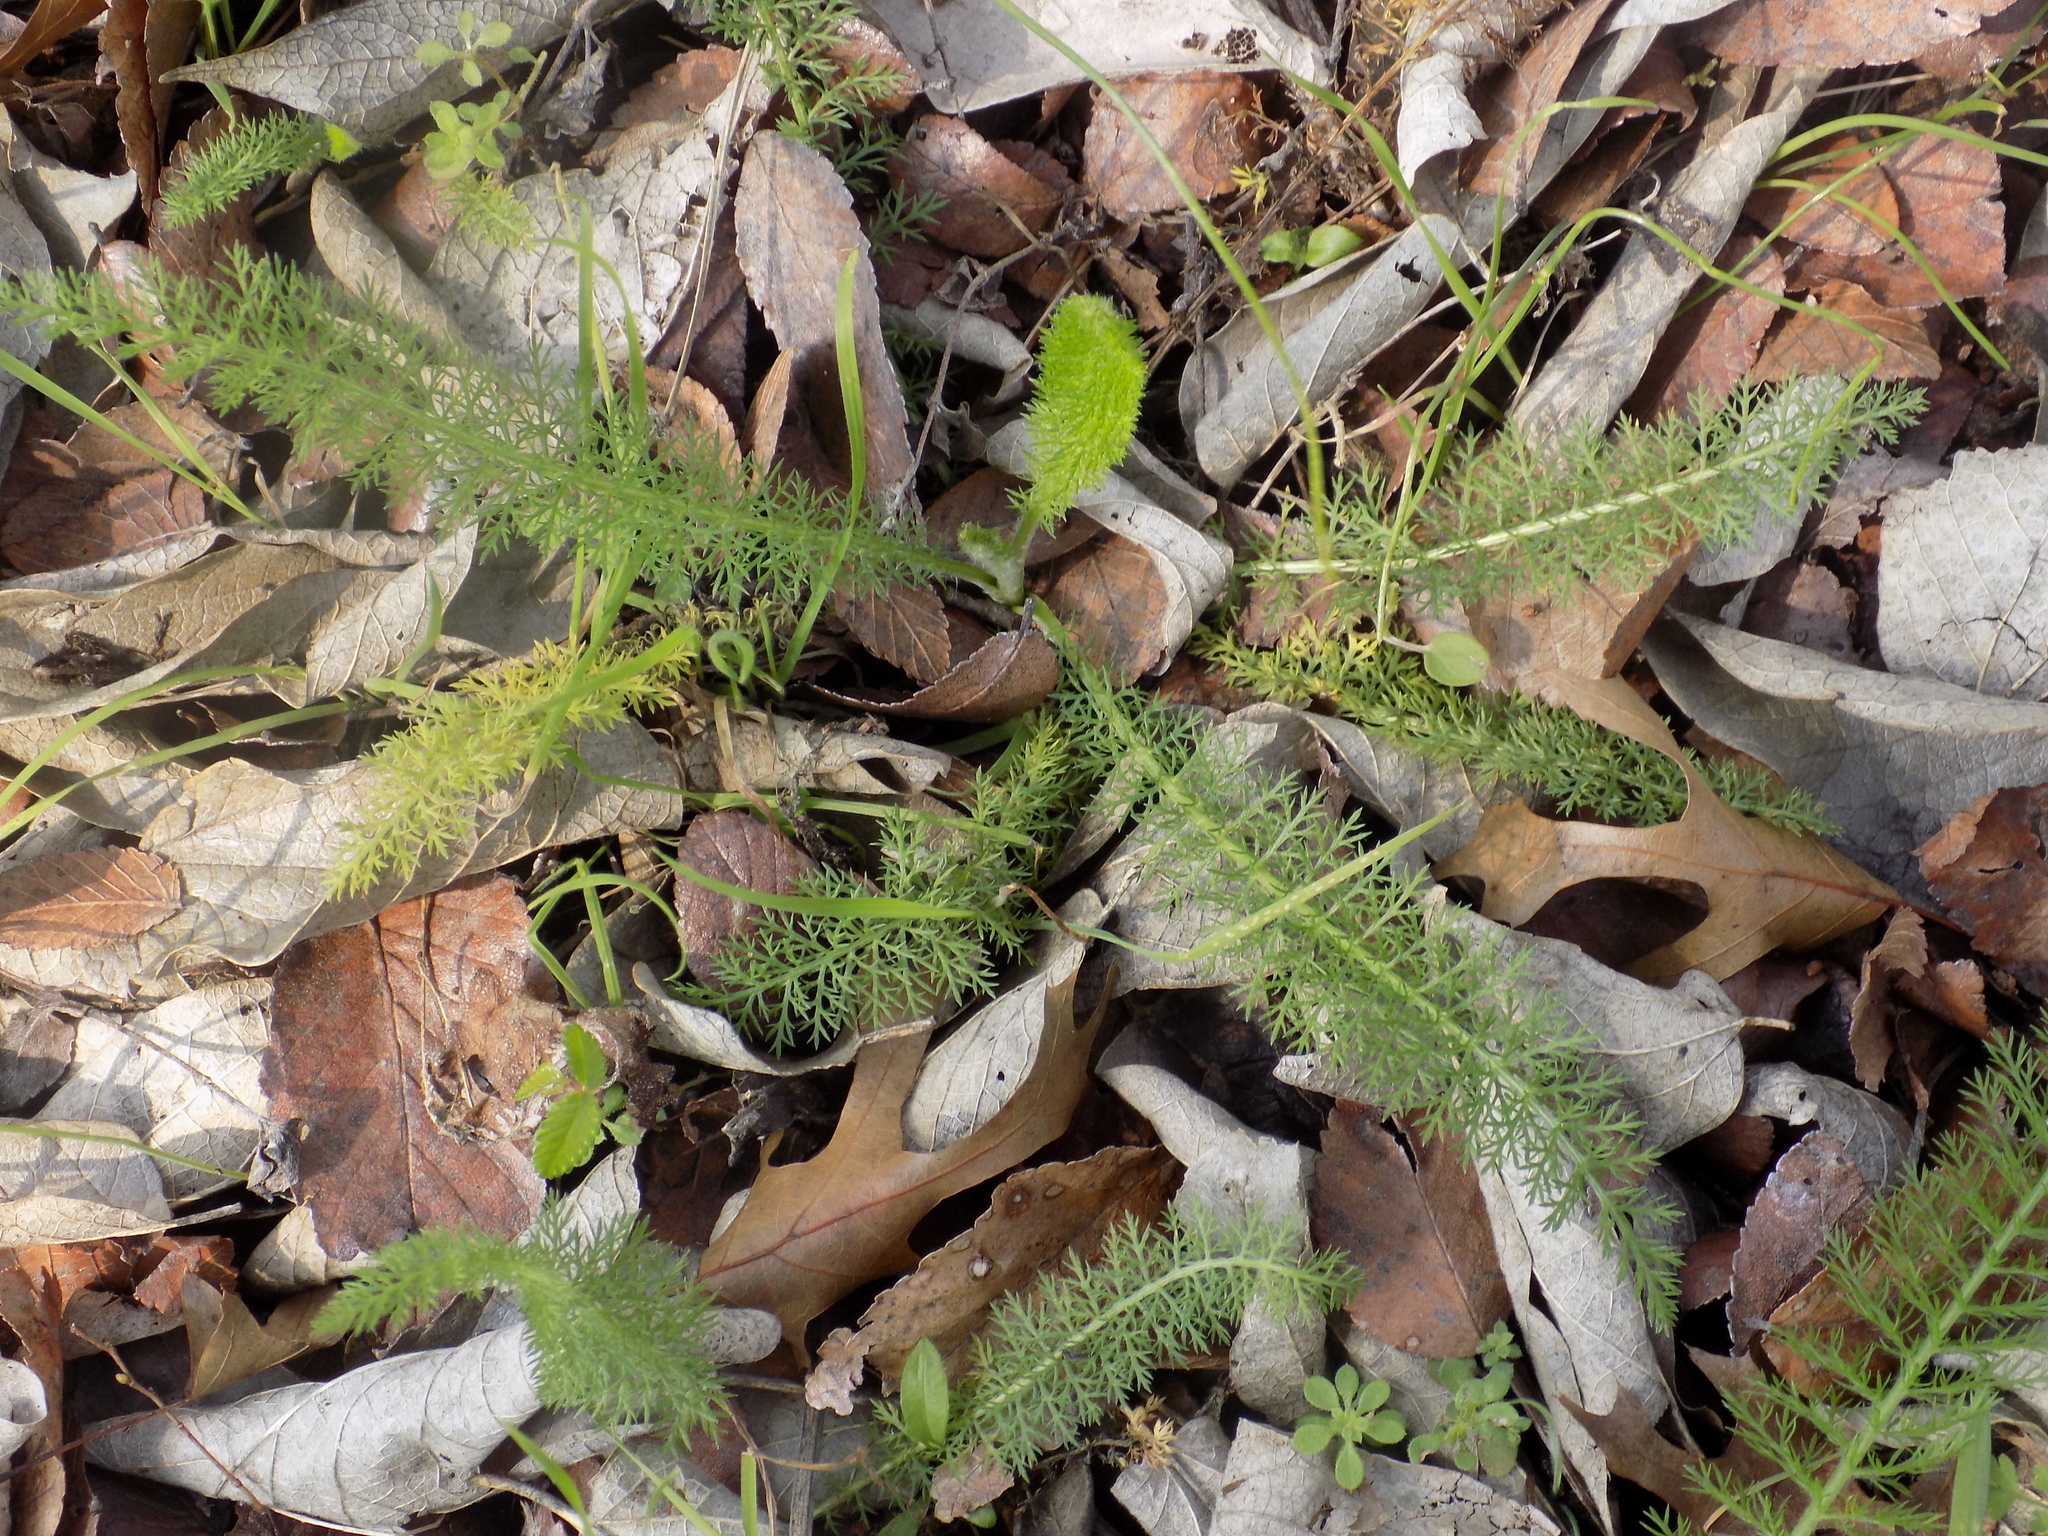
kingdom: Plantae
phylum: Tracheophyta
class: Magnoliopsida
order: Asterales
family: Asteraceae
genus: Achillea
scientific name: Achillea millefolium
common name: Yarrow
